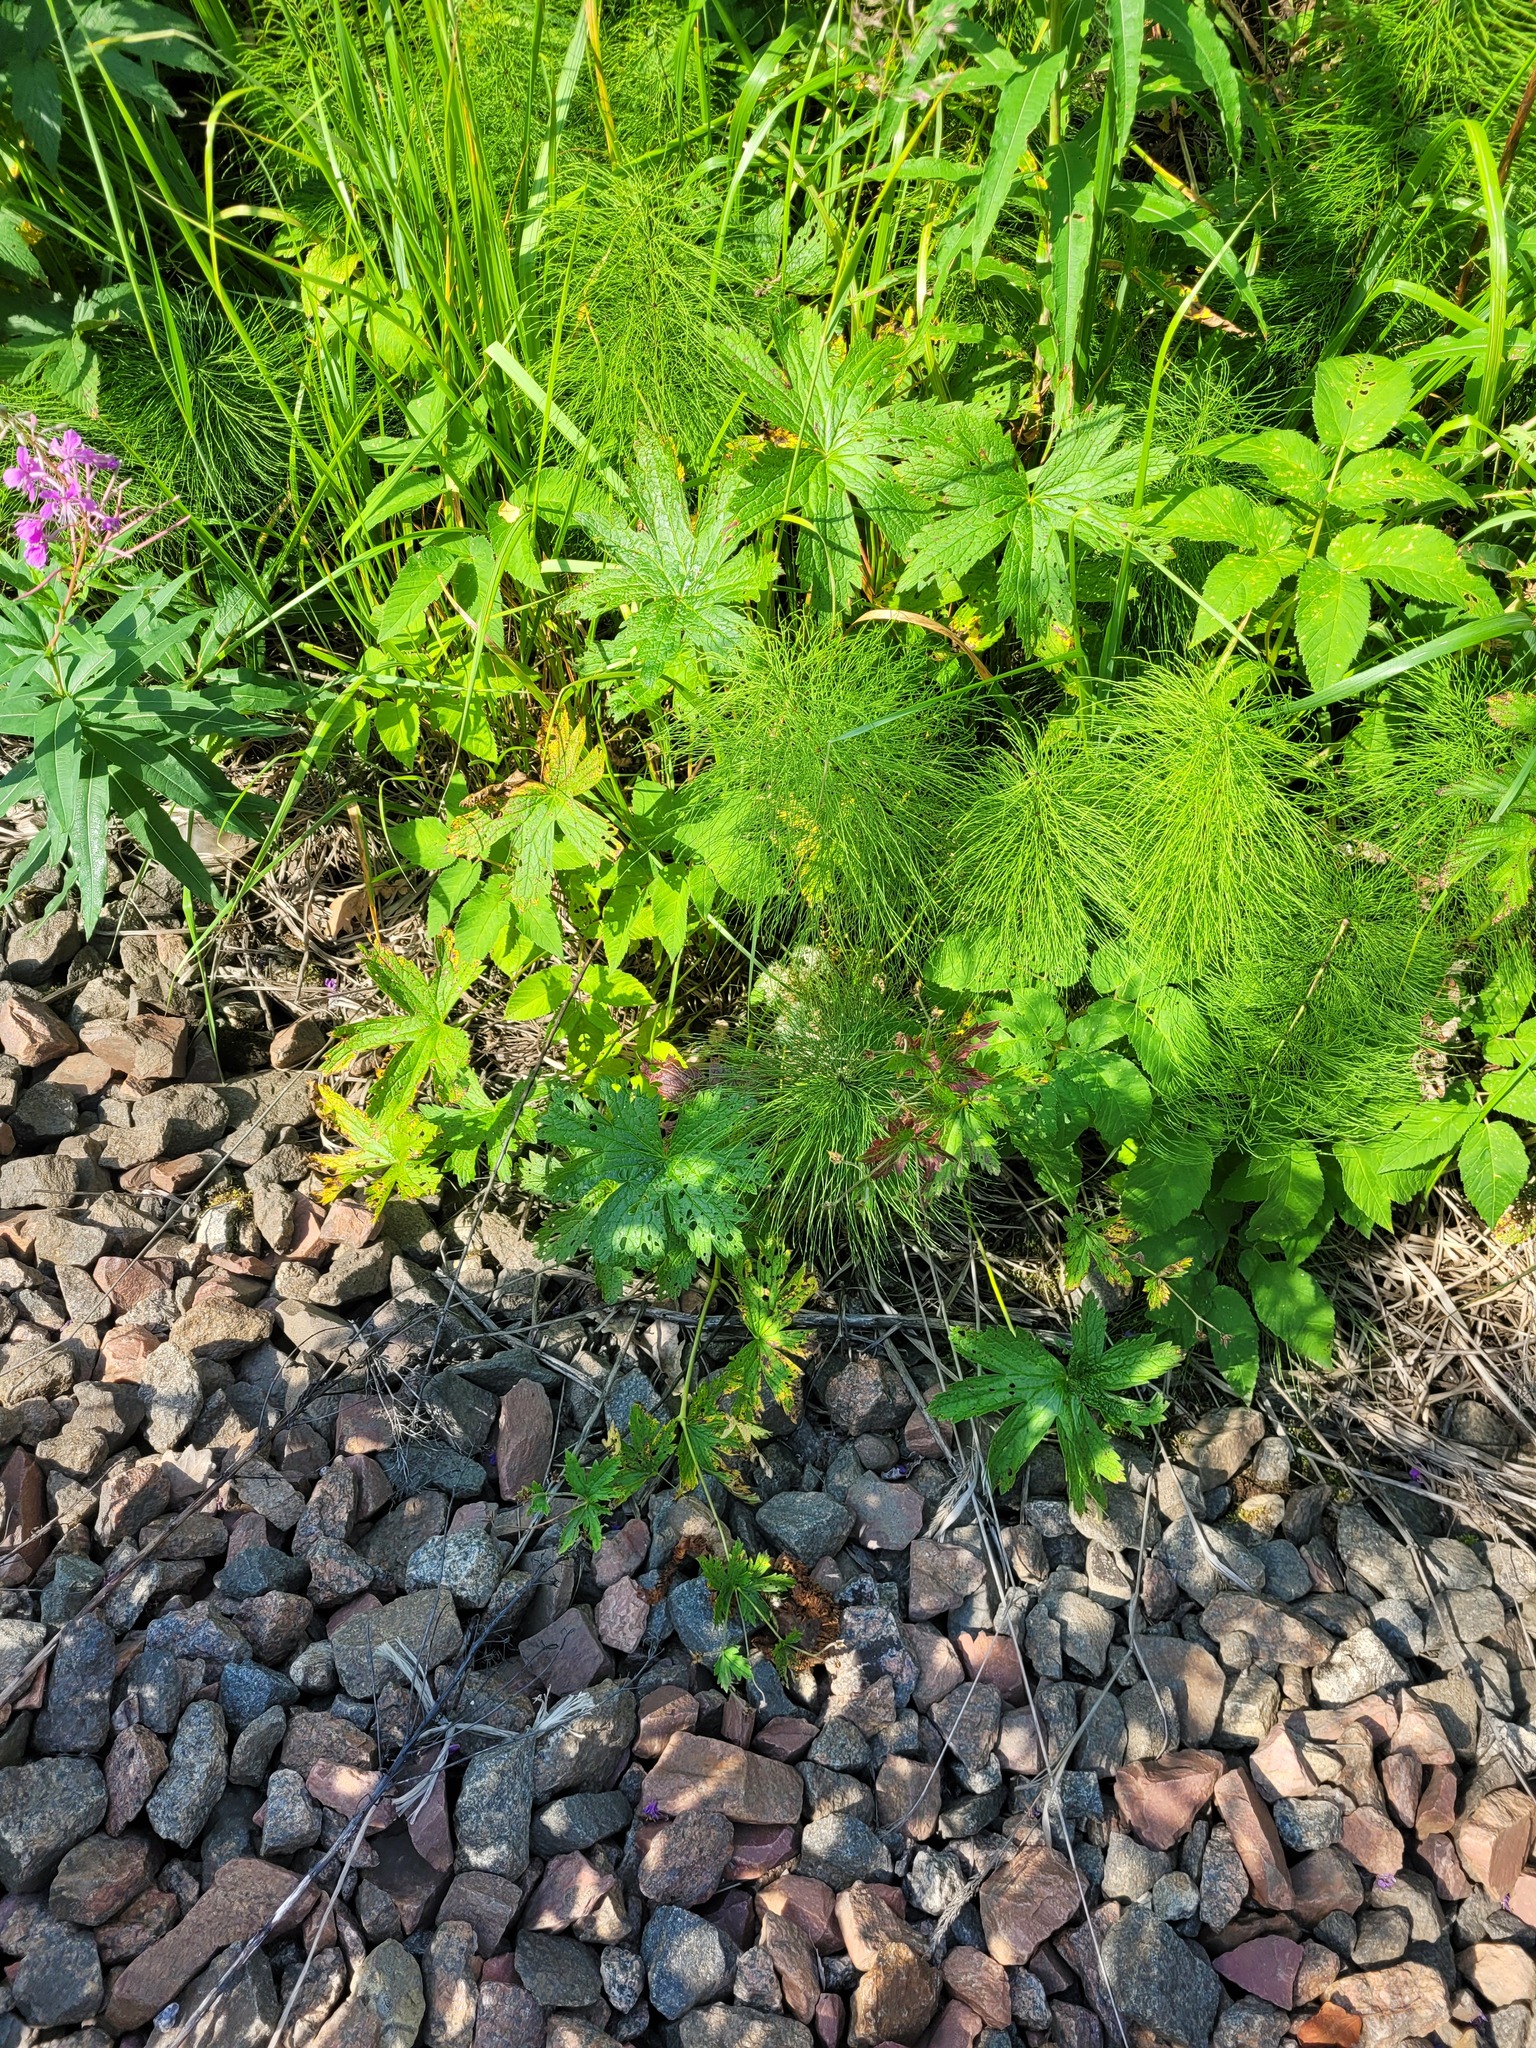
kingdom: Plantae
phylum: Tracheophyta
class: Polypodiopsida
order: Equisetales
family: Equisetaceae
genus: Equisetum
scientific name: Equisetum sylvaticum
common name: Wood horsetail
